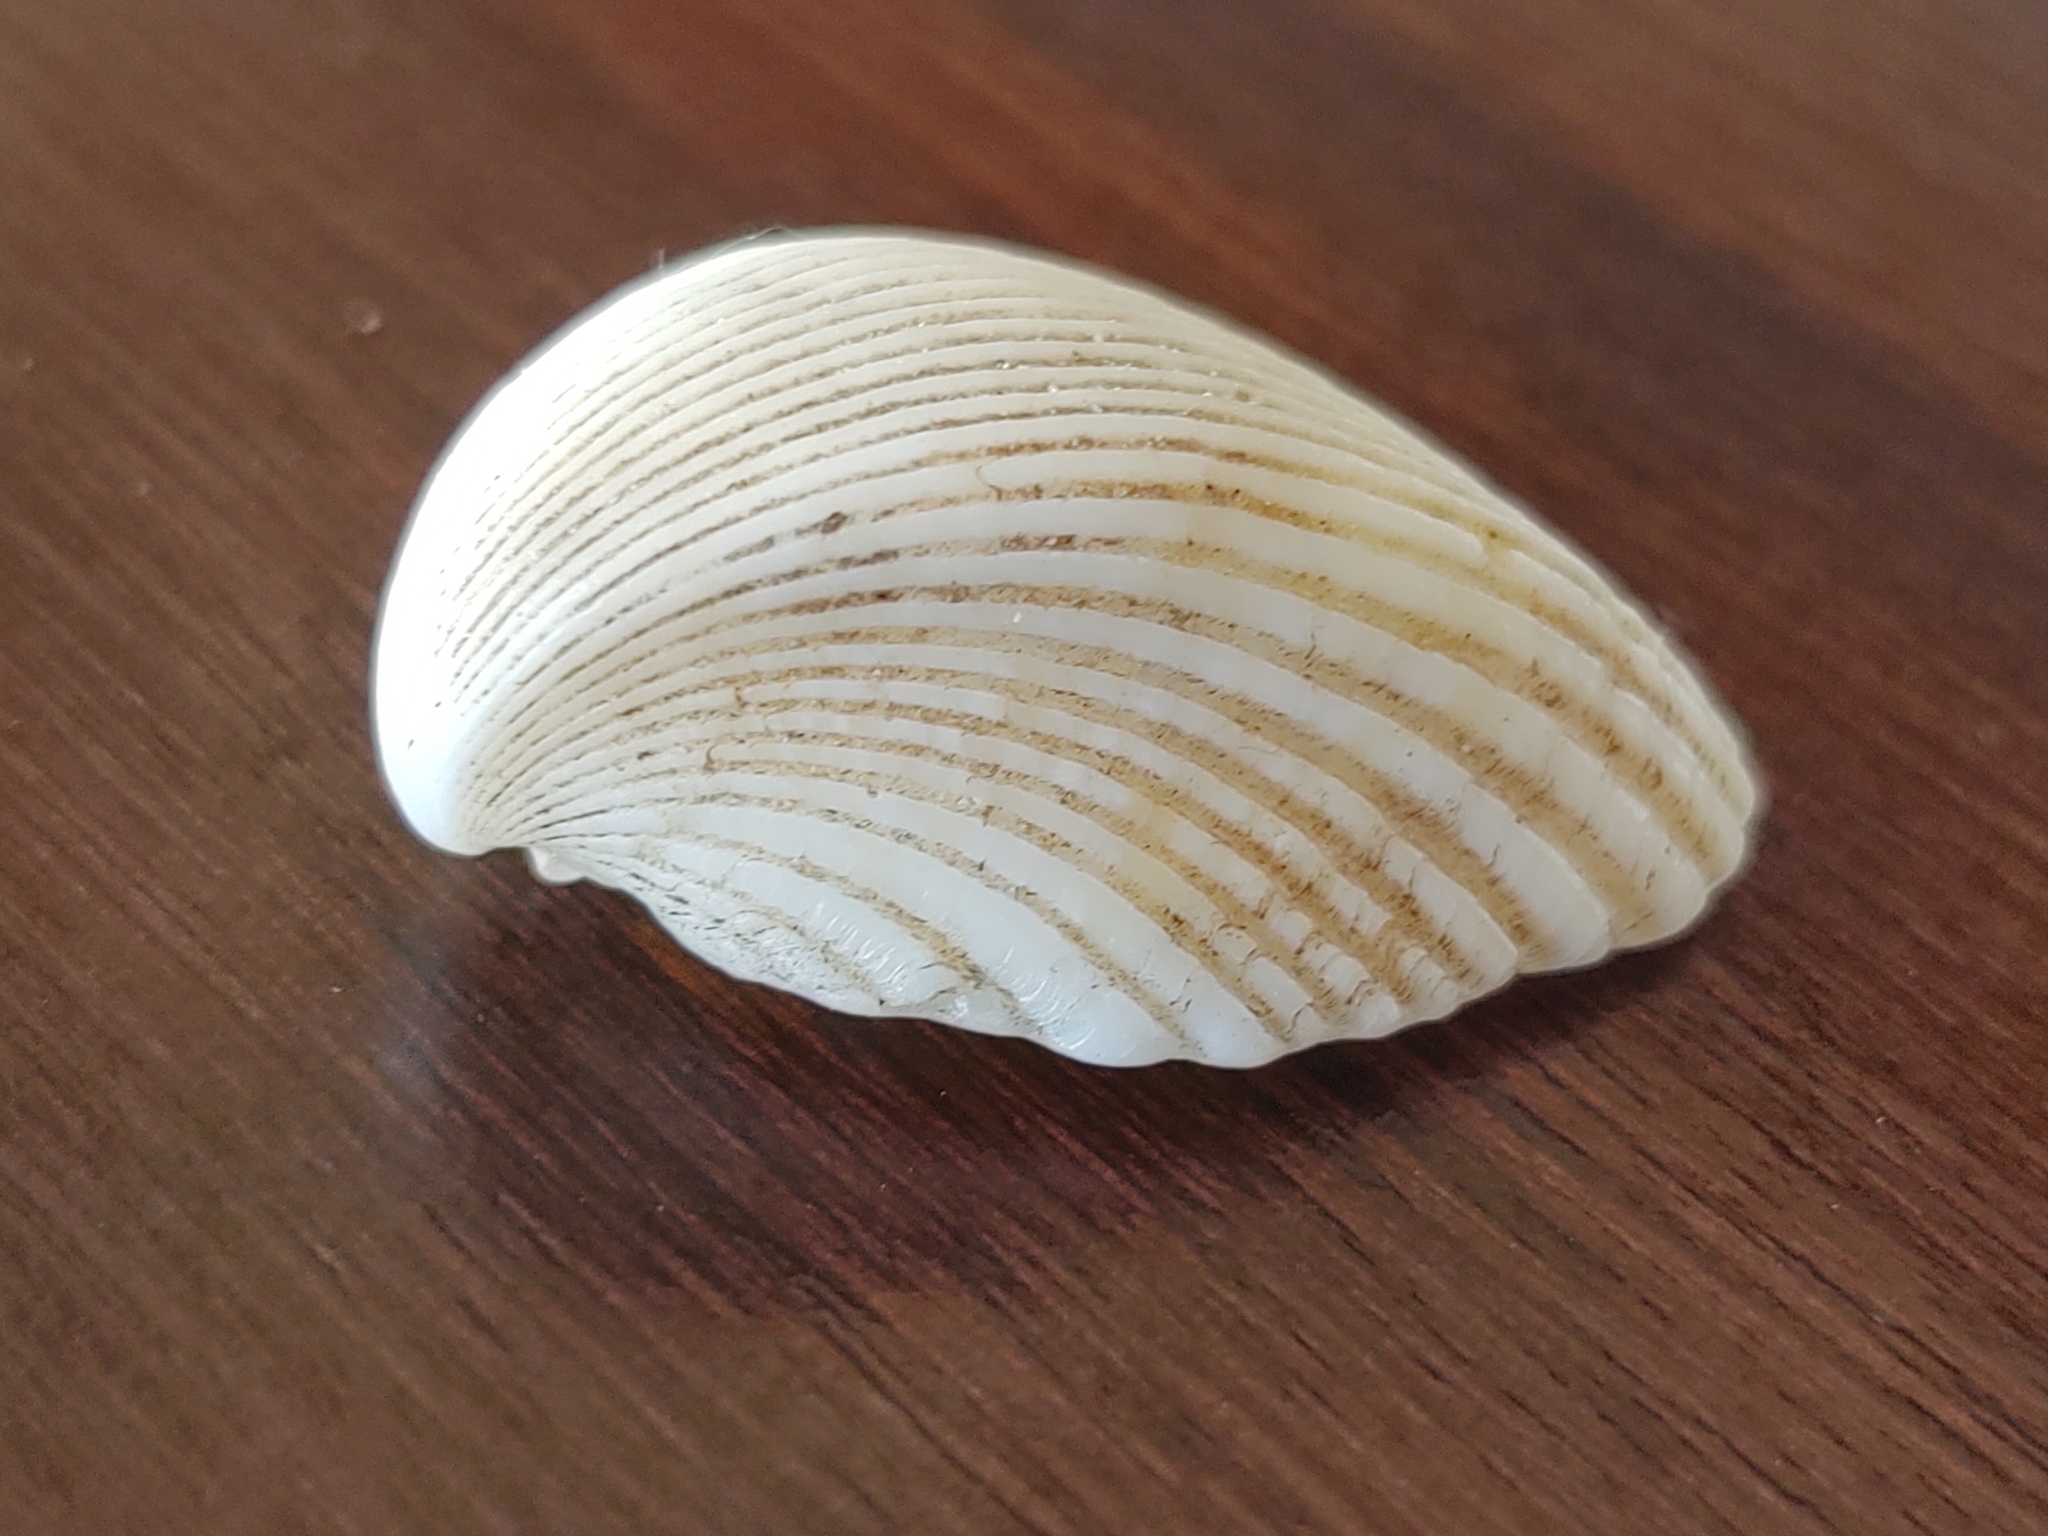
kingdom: Animalia
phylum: Mollusca
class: Bivalvia
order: Cardiida
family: Cardiidae
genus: Americardia
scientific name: Americardia media
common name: Atlantic strawberry-cockle
